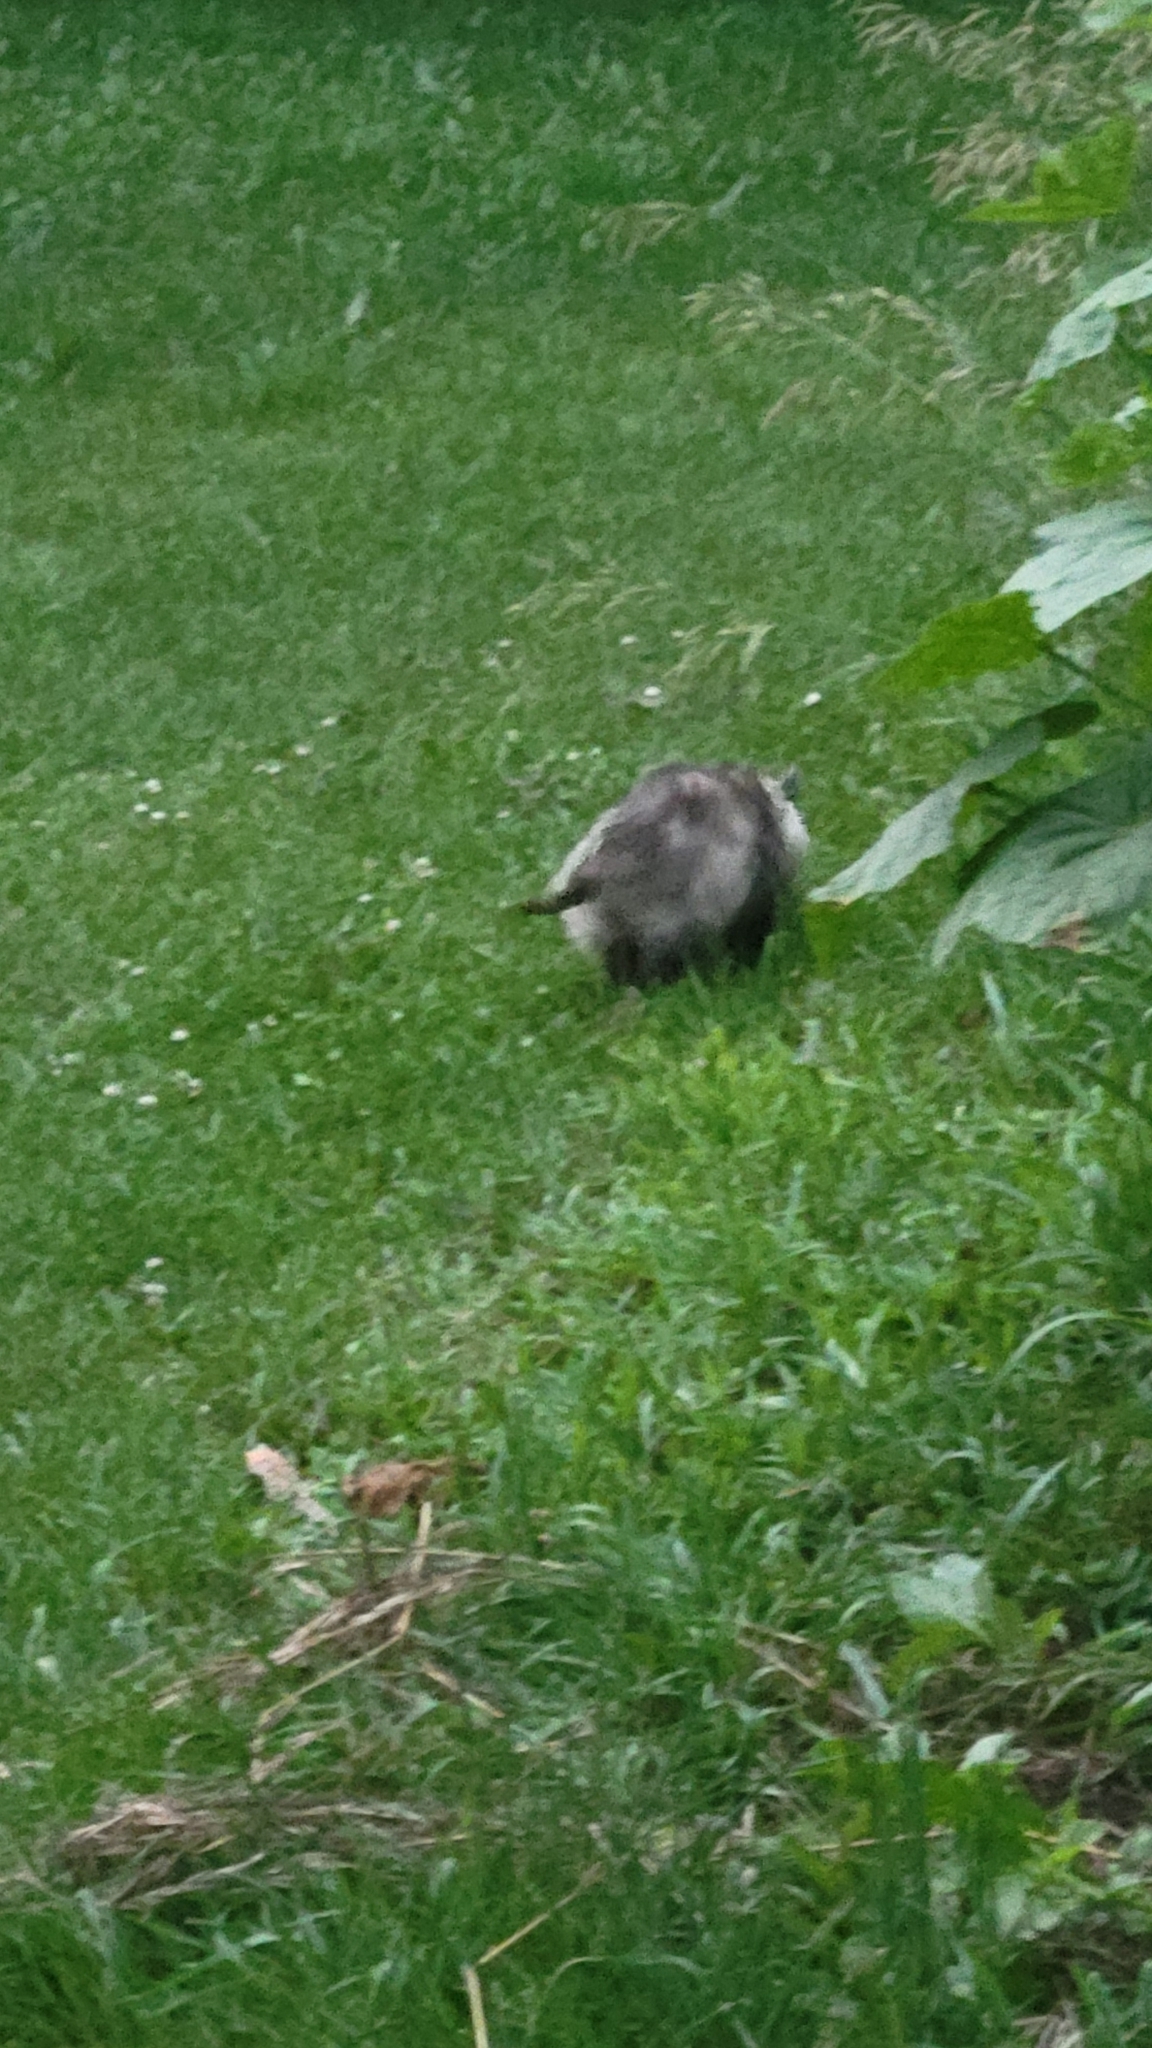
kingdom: Animalia
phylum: Chordata
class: Mammalia
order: Didelphimorphia
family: Didelphidae
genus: Didelphis
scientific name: Didelphis virginiana
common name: Virginia opossum
